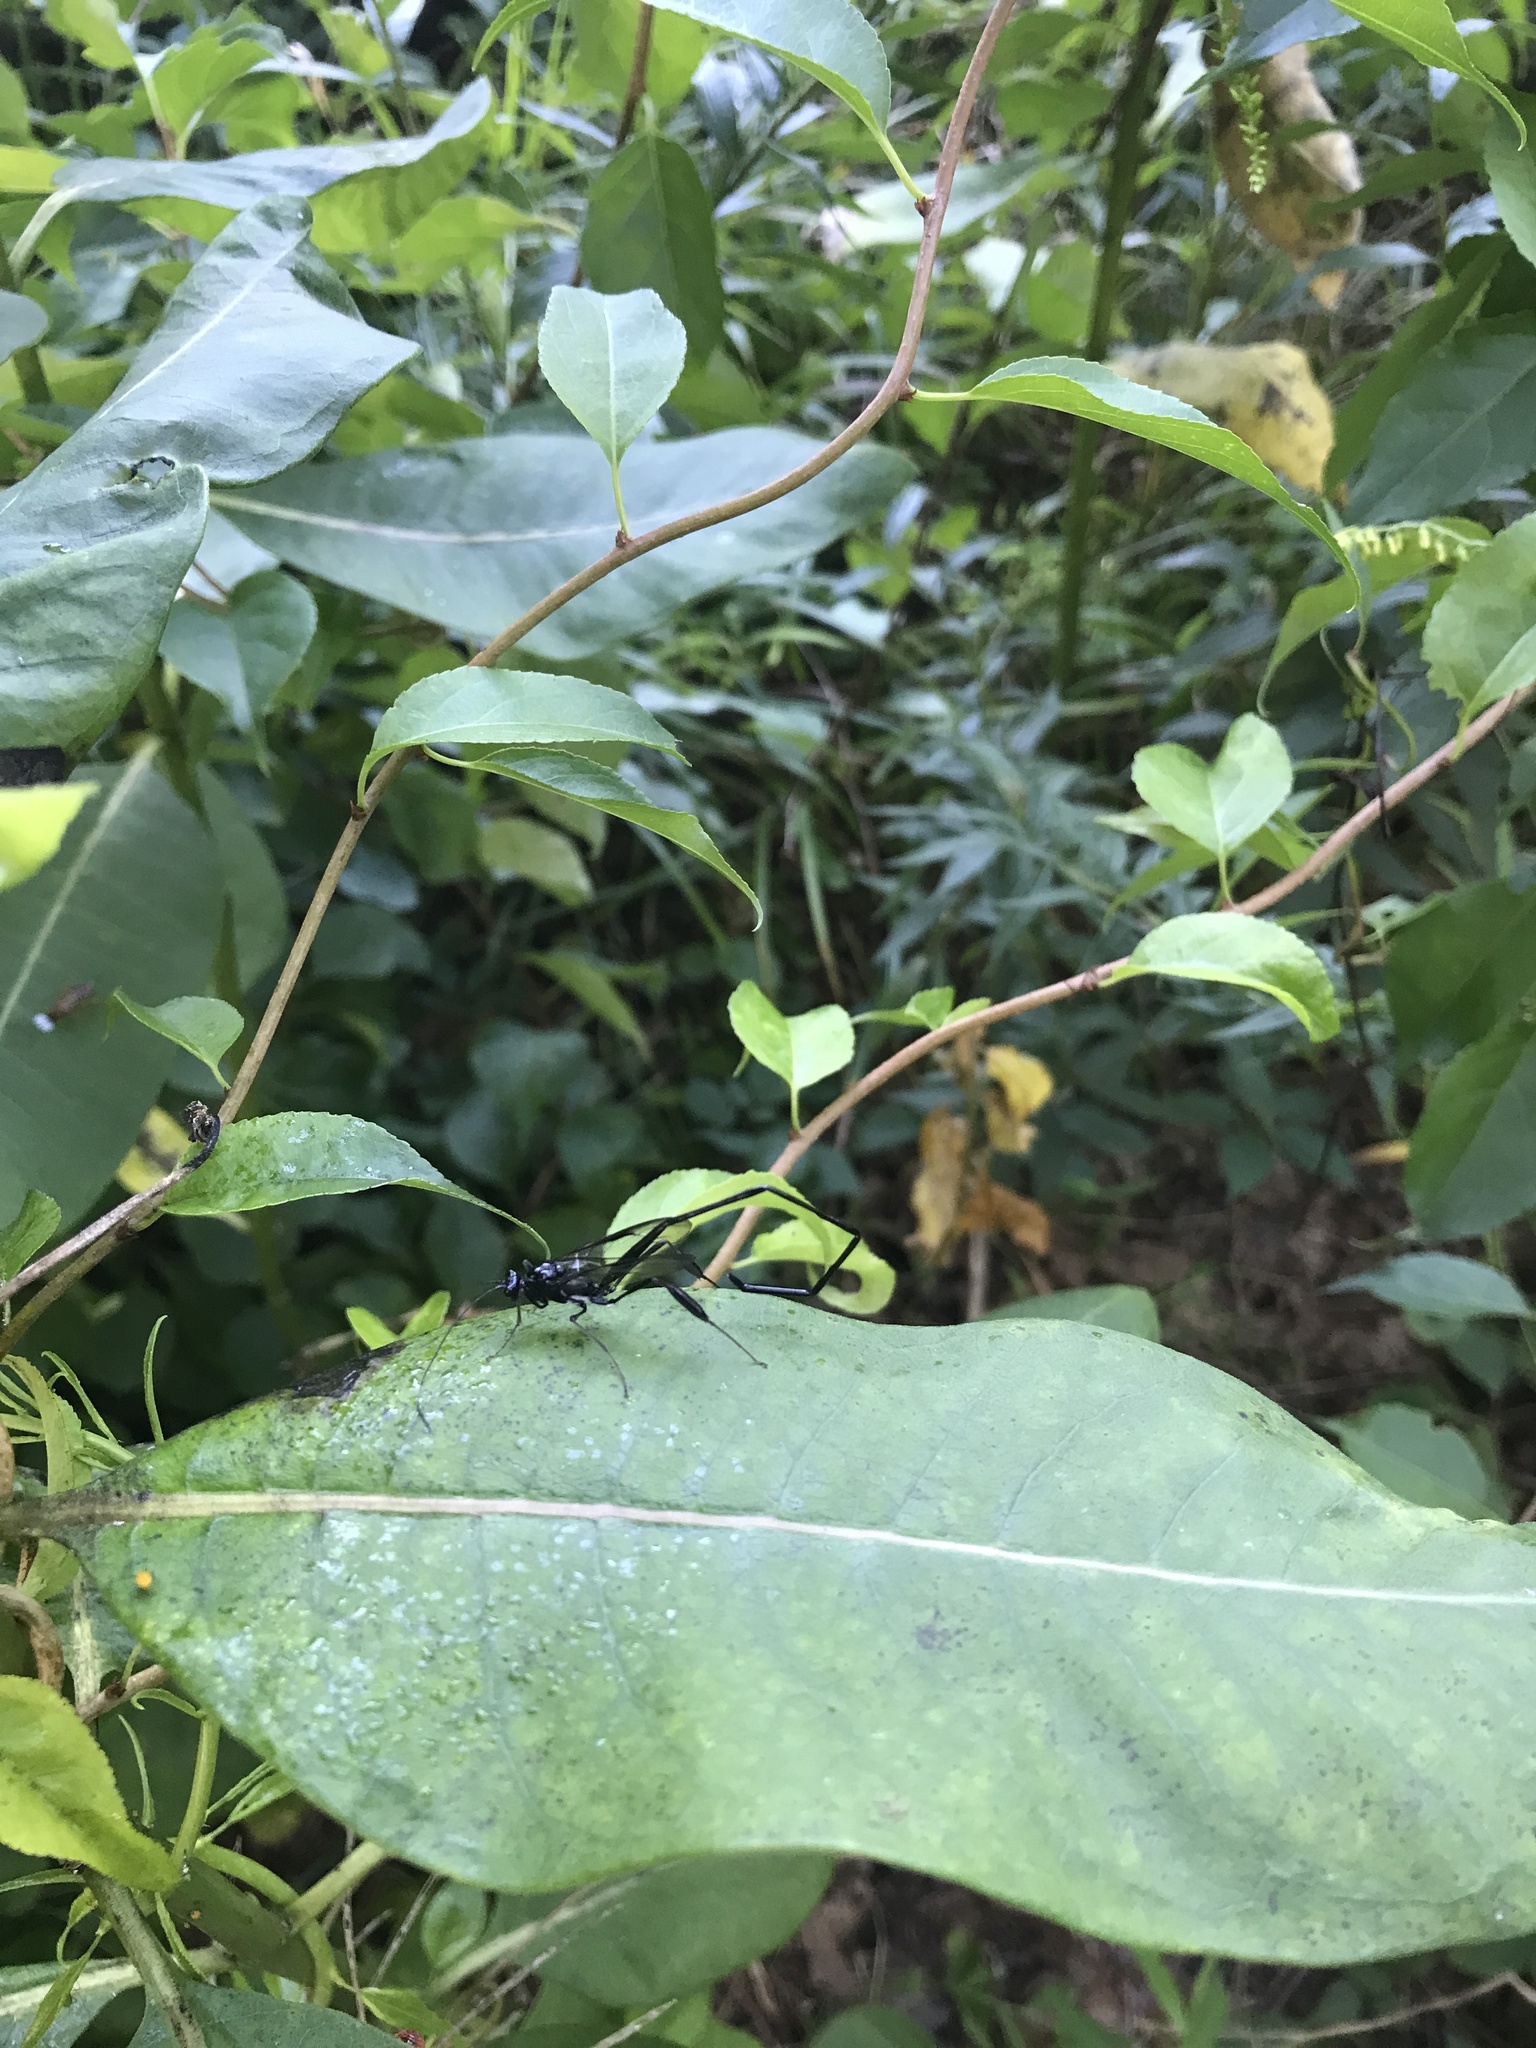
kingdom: Animalia
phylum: Arthropoda
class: Insecta
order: Hymenoptera
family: Pelecinidae
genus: Pelecinus
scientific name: Pelecinus polyturator
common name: American pelecinid wasp
